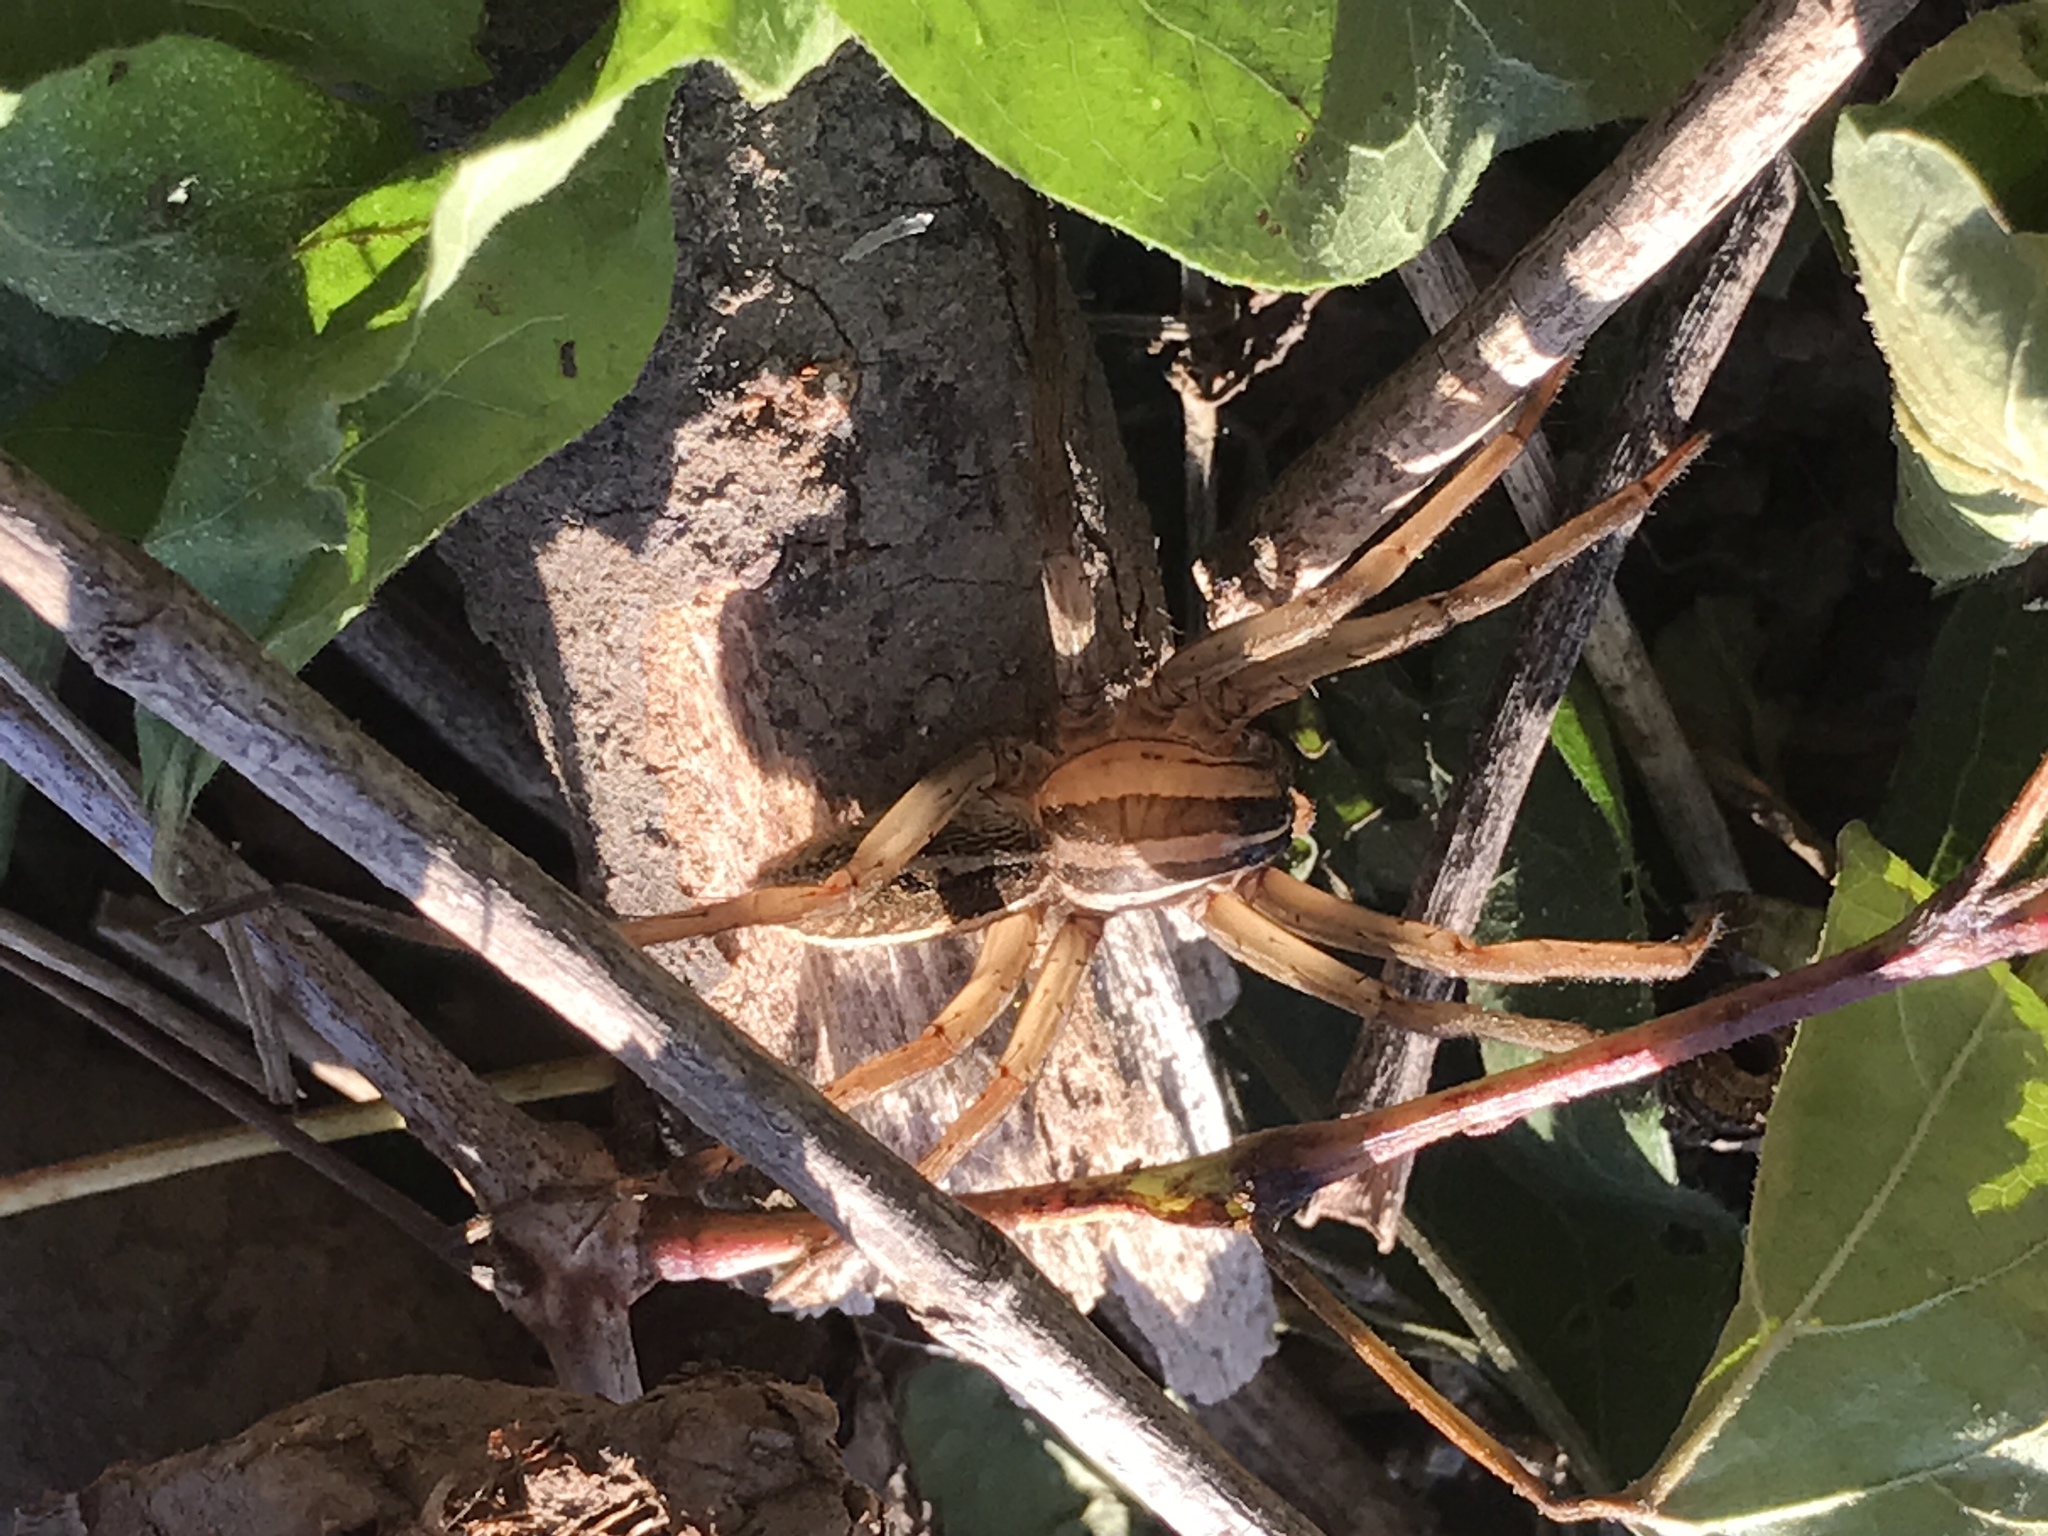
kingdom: Animalia
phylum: Arthropoda
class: Arachnida
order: Araneae
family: Lycosidae
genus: Rabidosa
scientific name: Rabidosa rabida
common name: Rabid wolf spider
